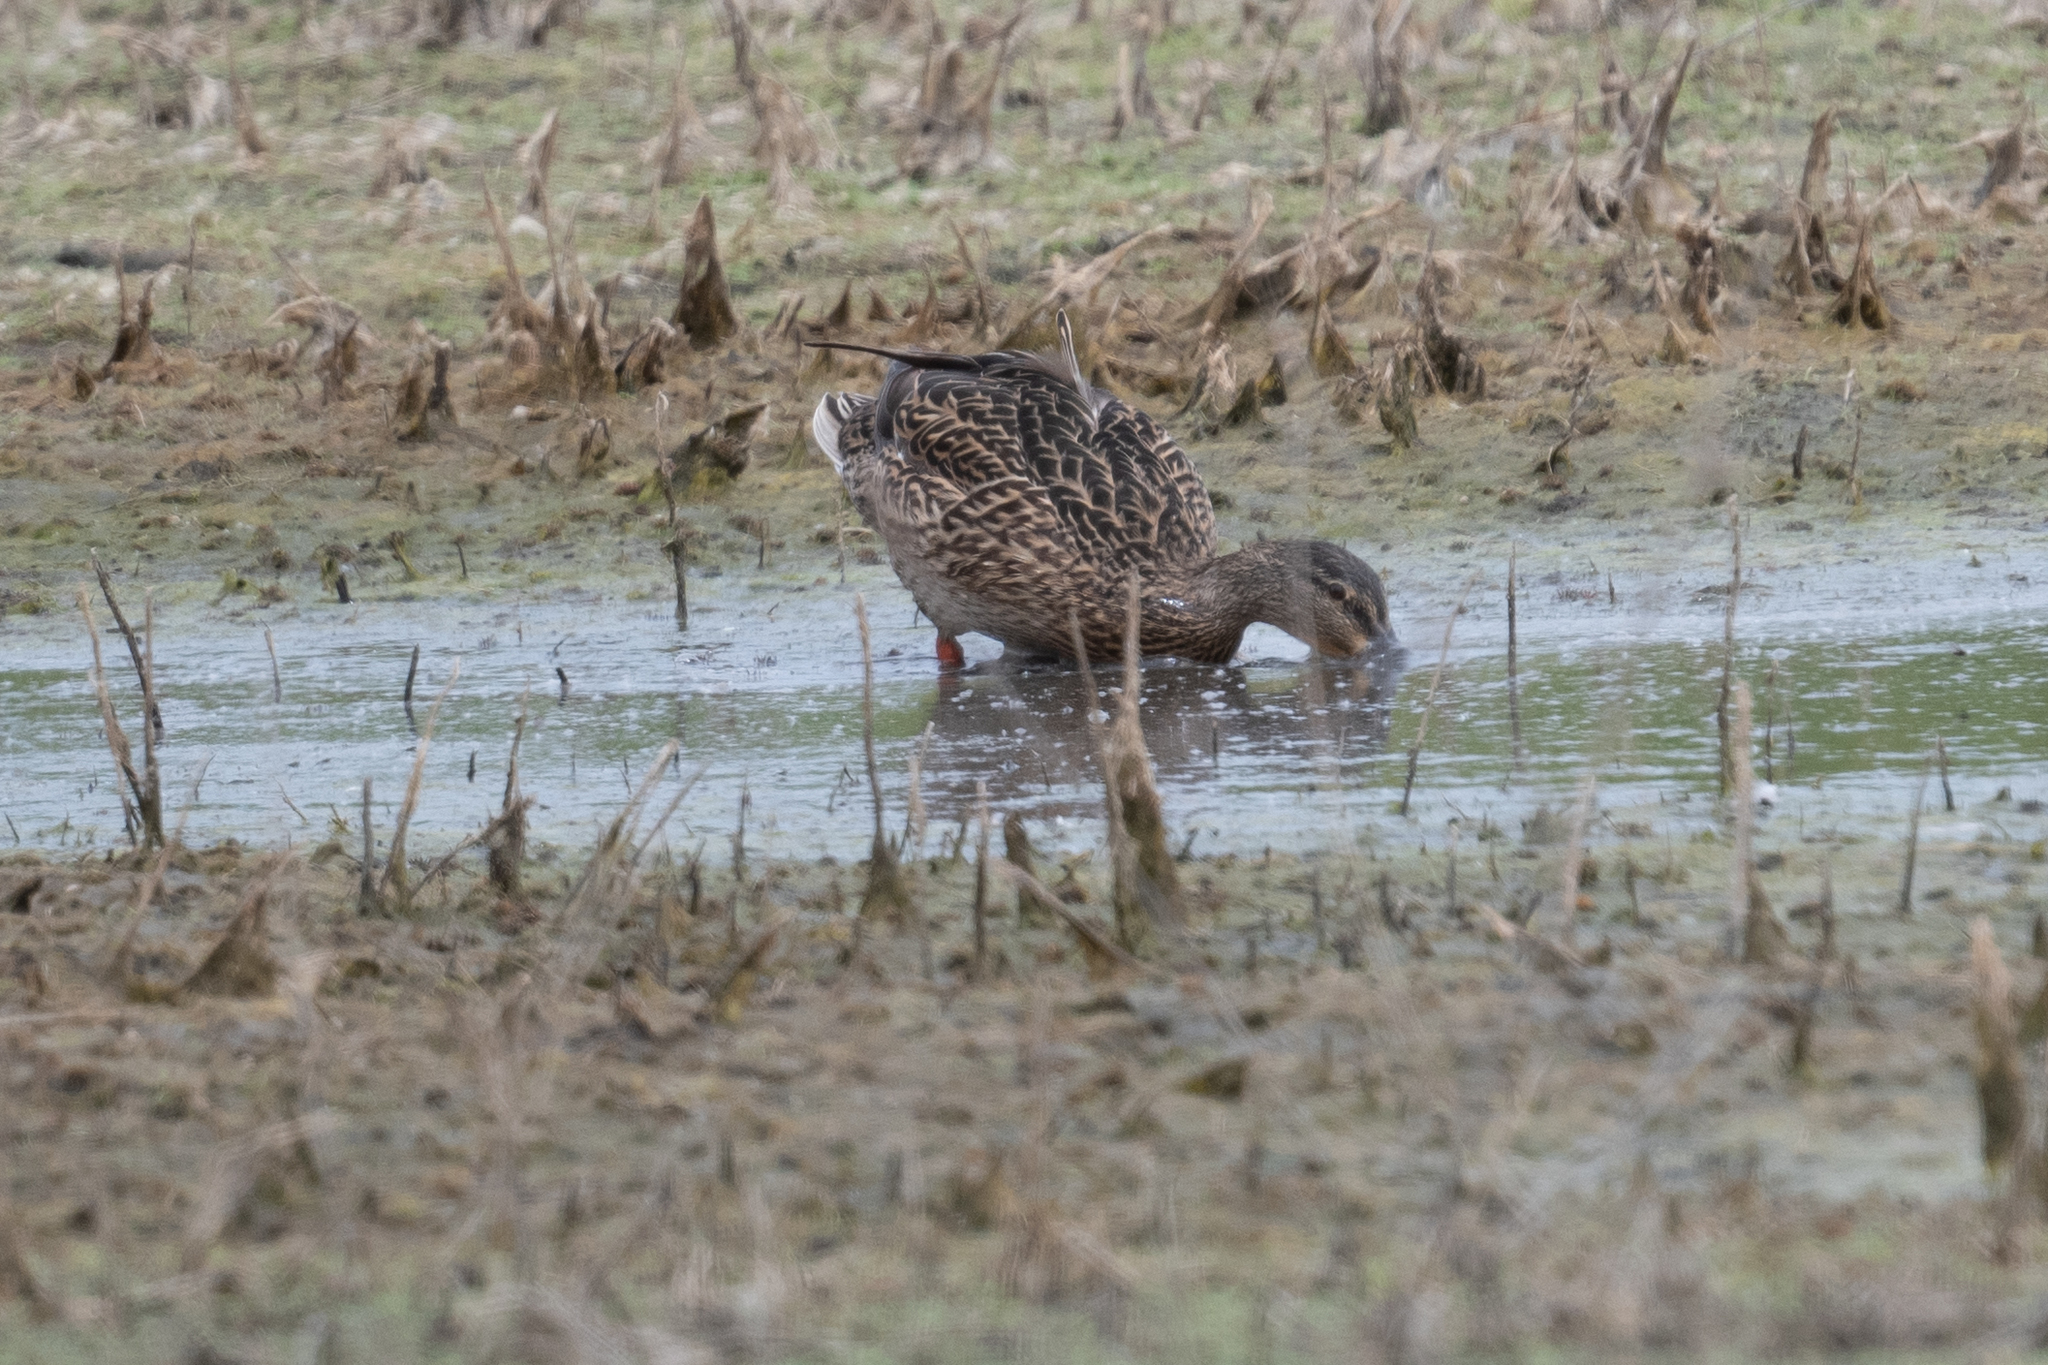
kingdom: Animalia
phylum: Chordata
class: Aves
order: Anseriformes
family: Anatidae
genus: Anas
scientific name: Anas platyrhynchos
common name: Mallard
